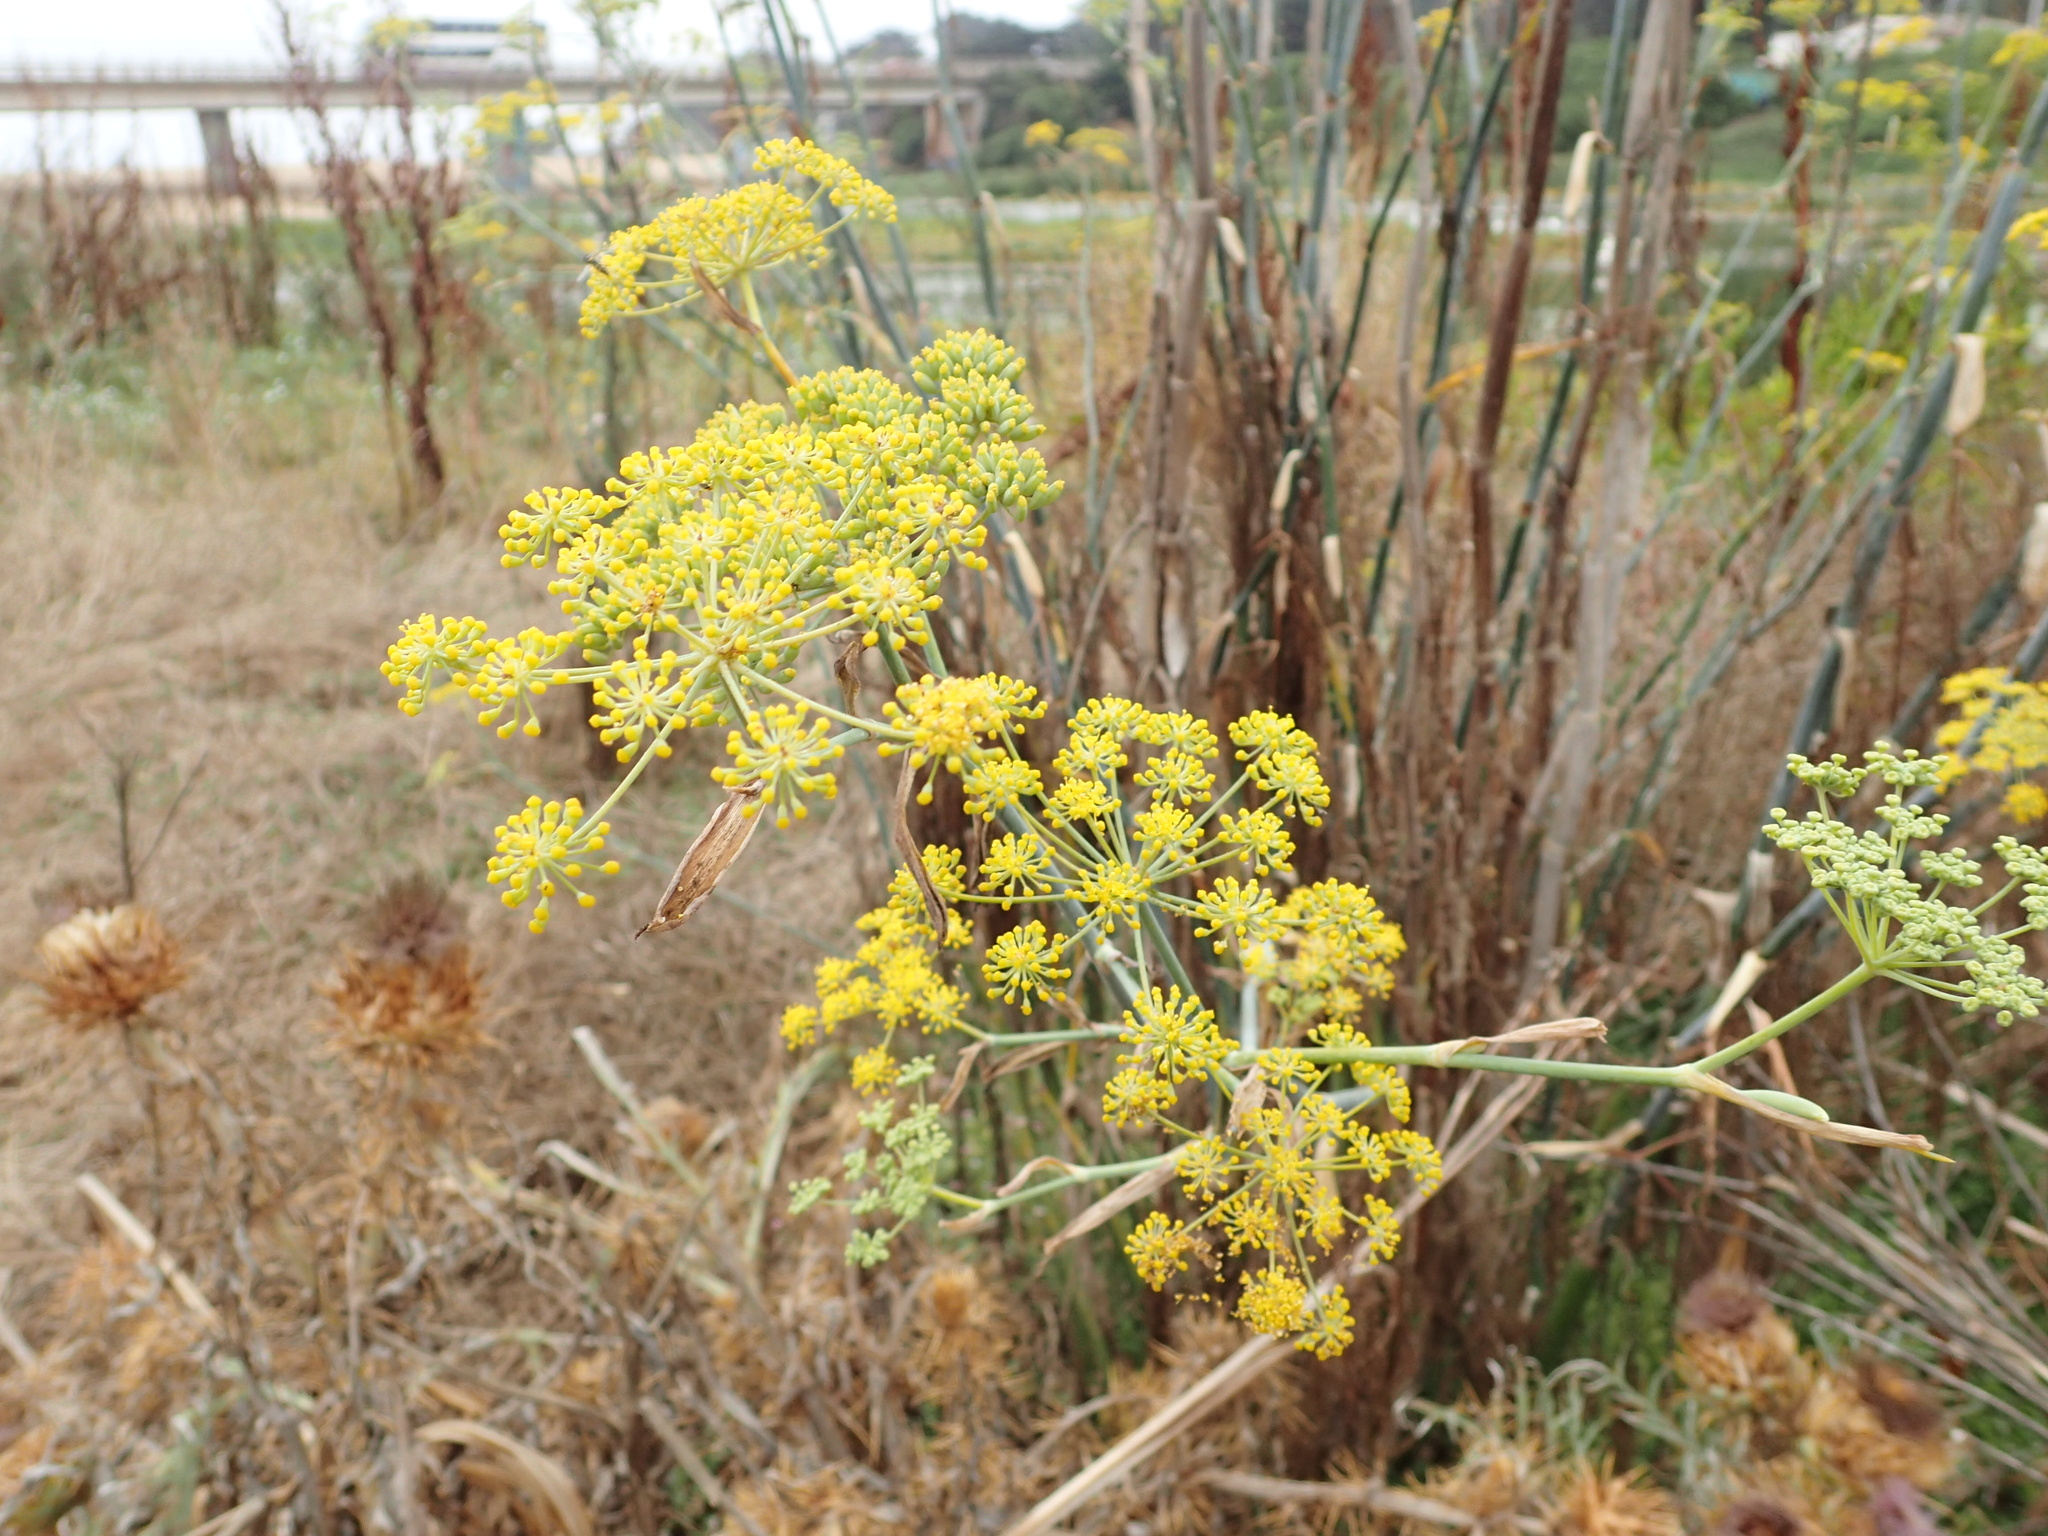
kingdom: Plantae
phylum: Tracheophyta
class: Magnoliopsida
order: Apiales
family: Apiaceae
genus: Foeniculum
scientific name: Foeniculum vulgare
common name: Fennel
